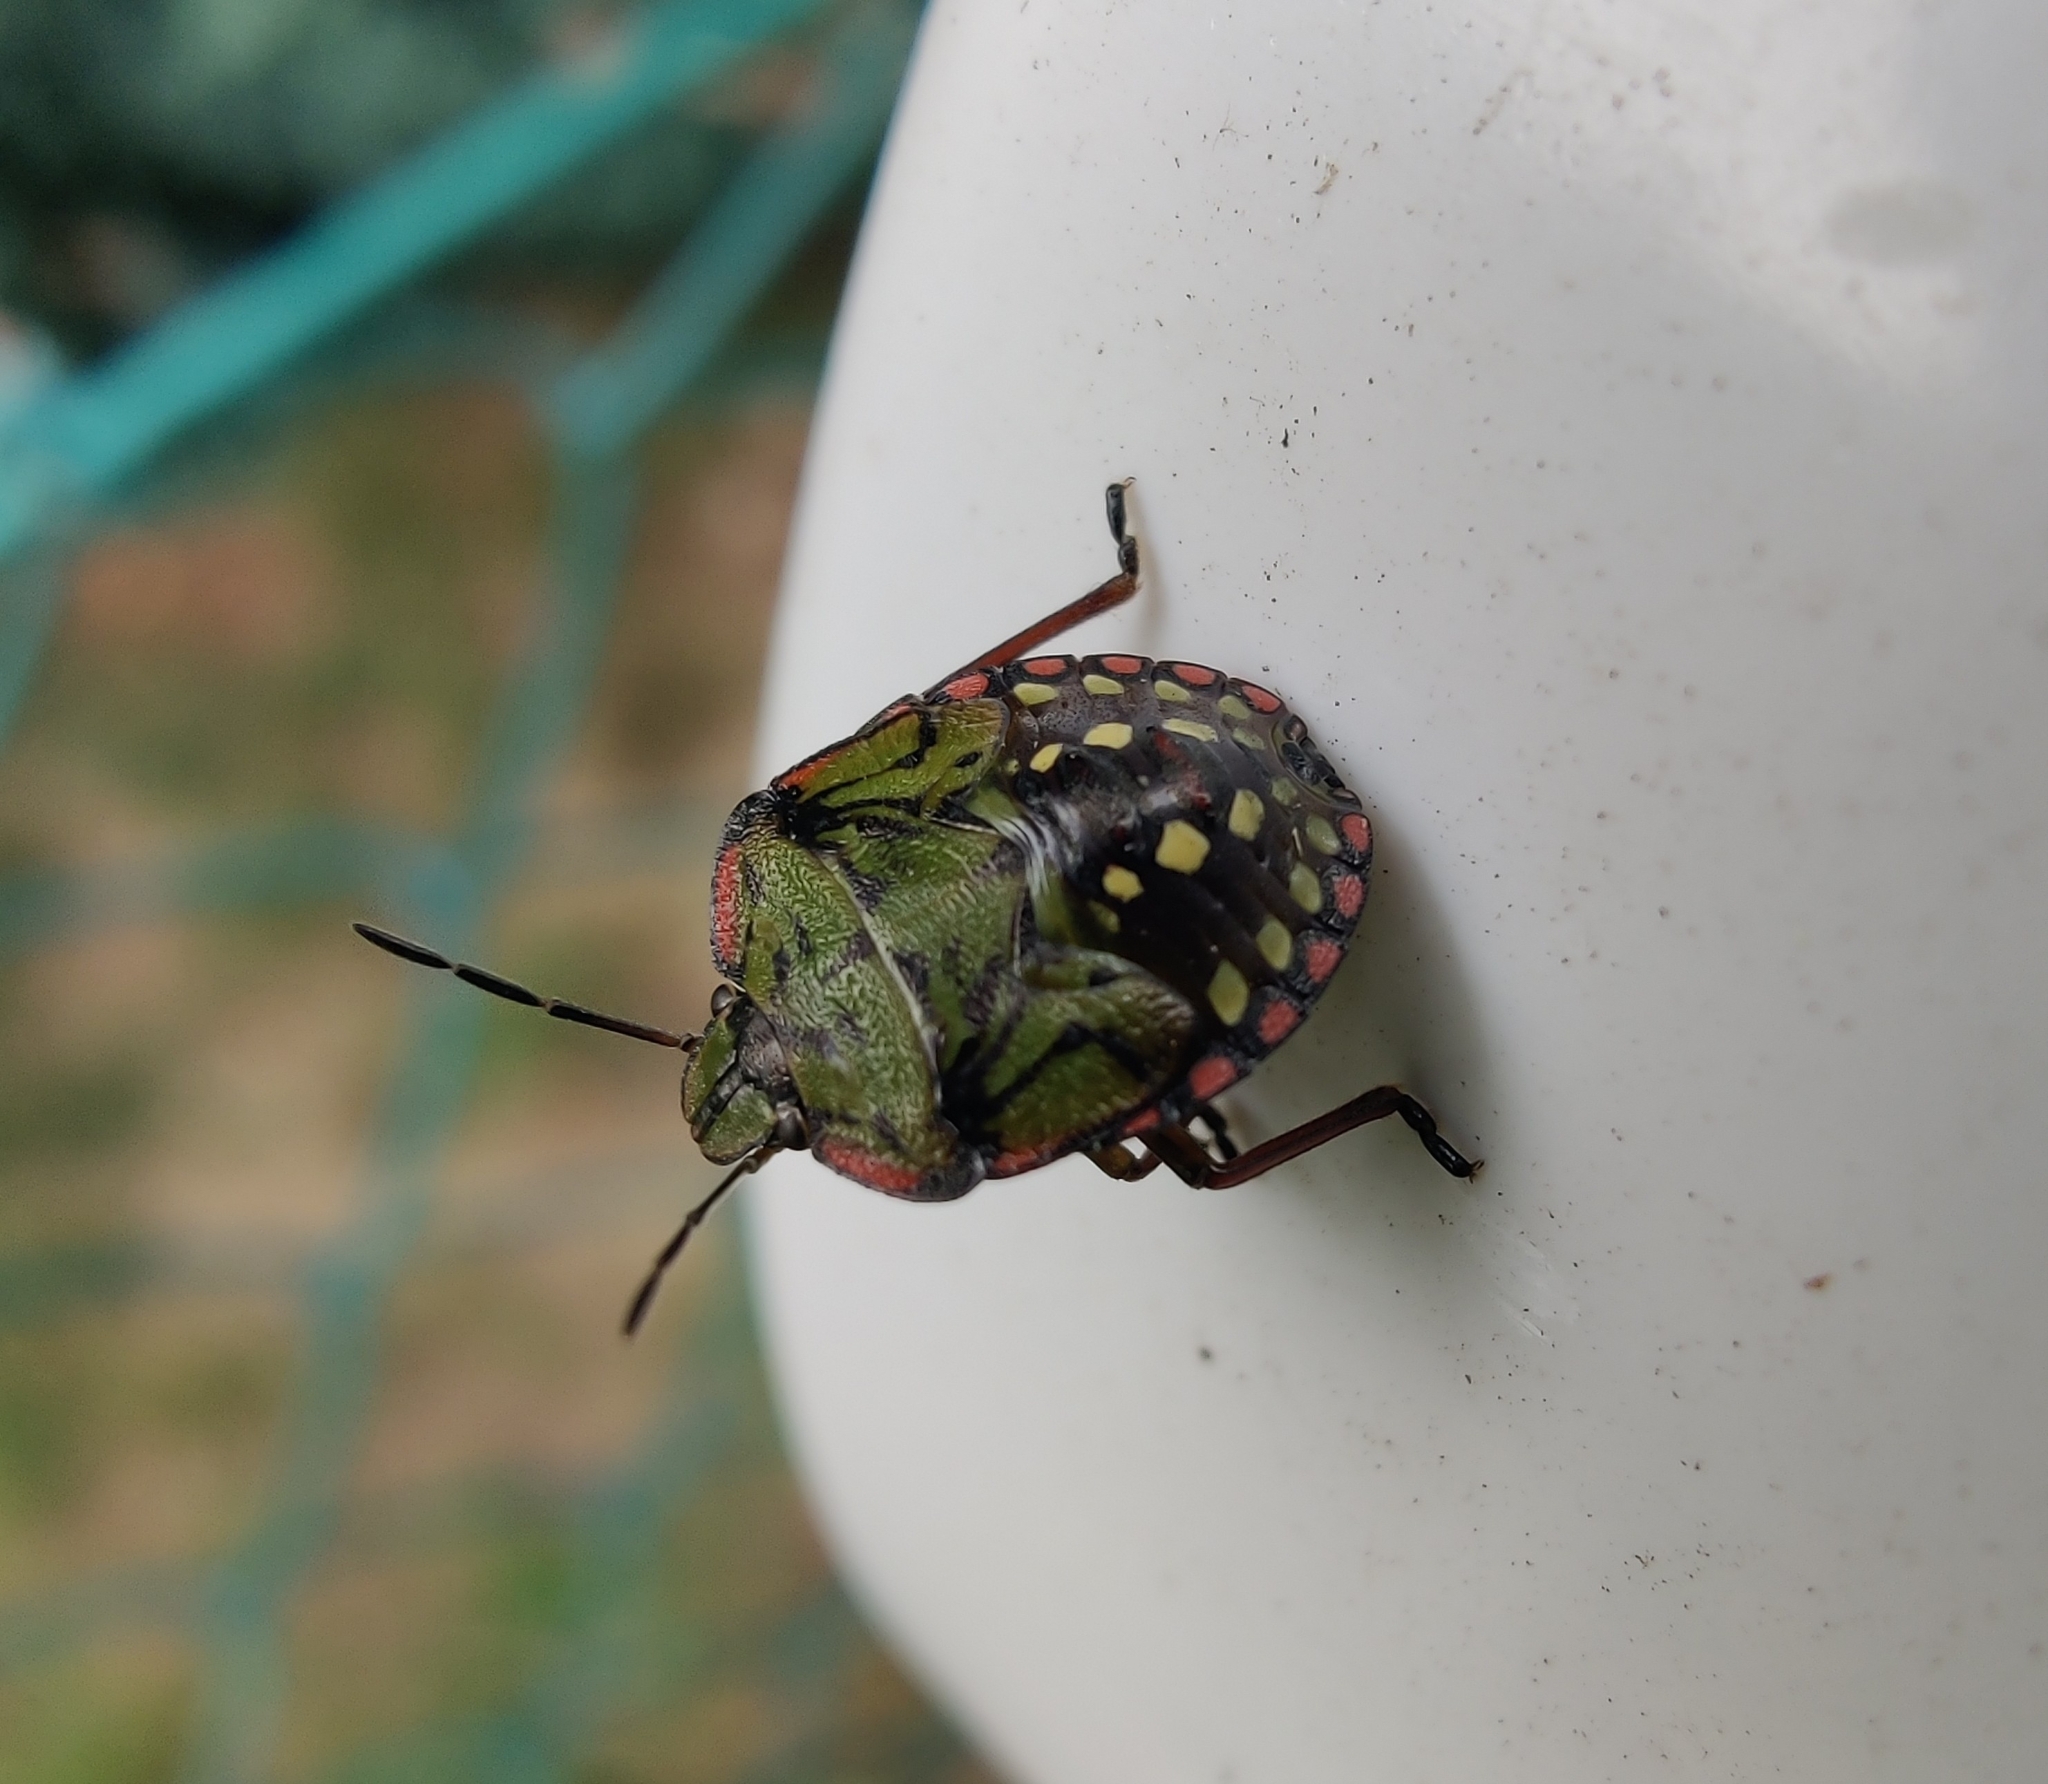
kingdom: Animalia
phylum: Arthropoda
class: Insecta
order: Hemiptera
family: Pentatomidae
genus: Nezara
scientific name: Nezara viridula
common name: Southern green stink bug
